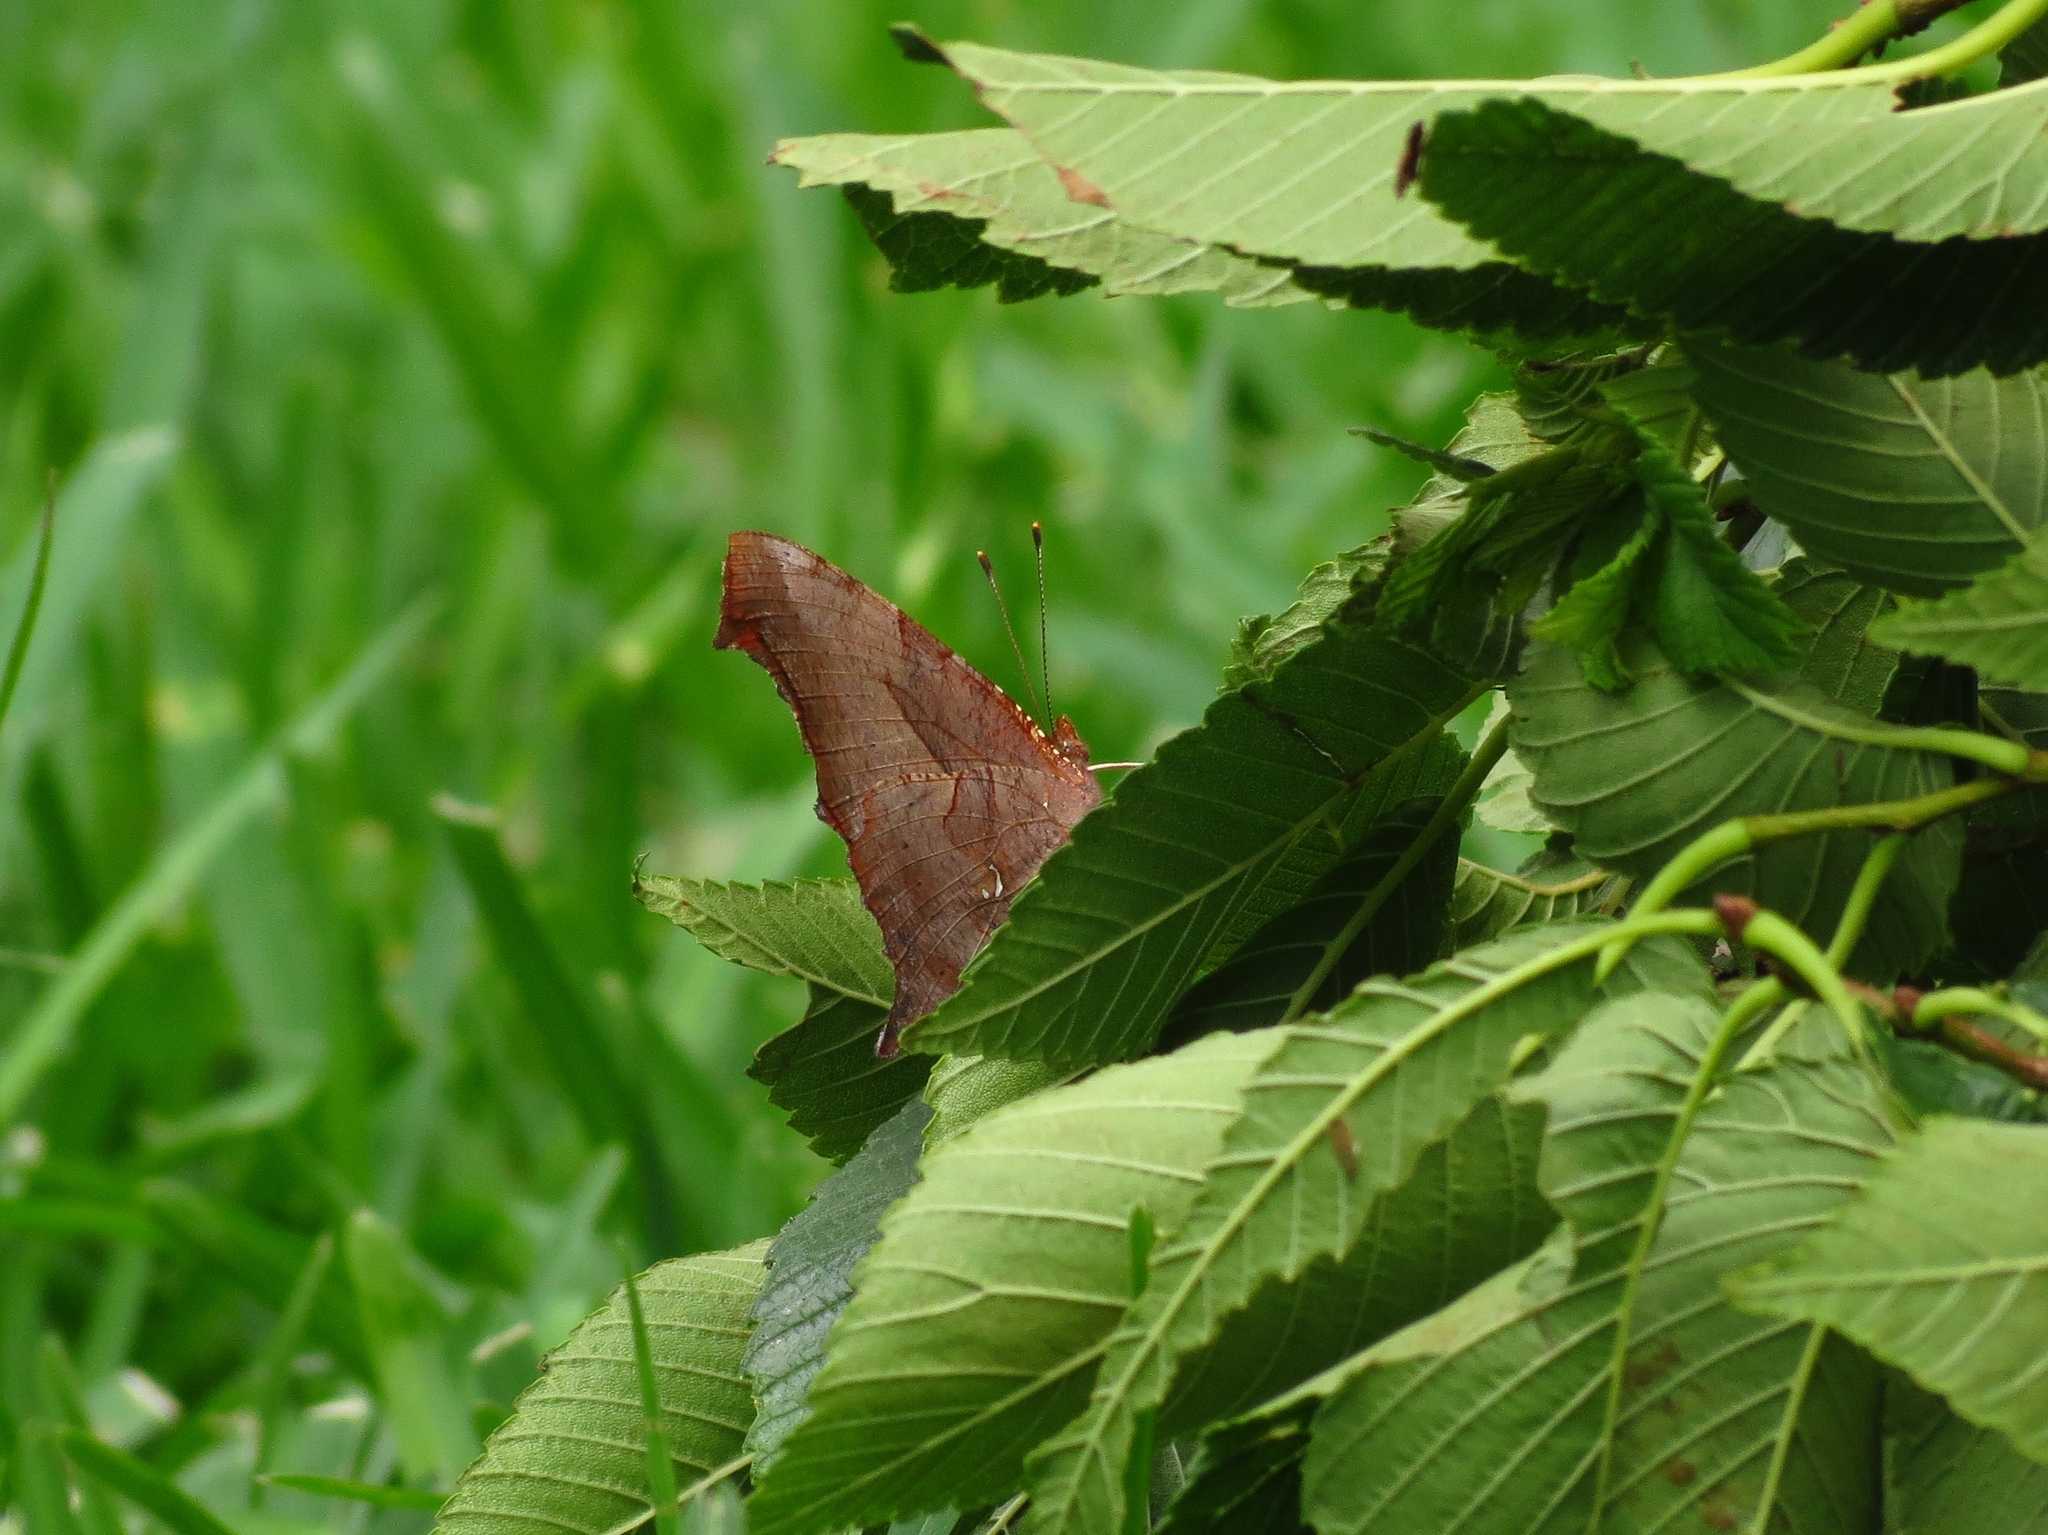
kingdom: Animalia
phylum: Arthropoda
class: Insecta
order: Lepidoptera
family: Nymphalidae
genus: Polygonia
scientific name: Polygonia interrogationis
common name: Question mark
